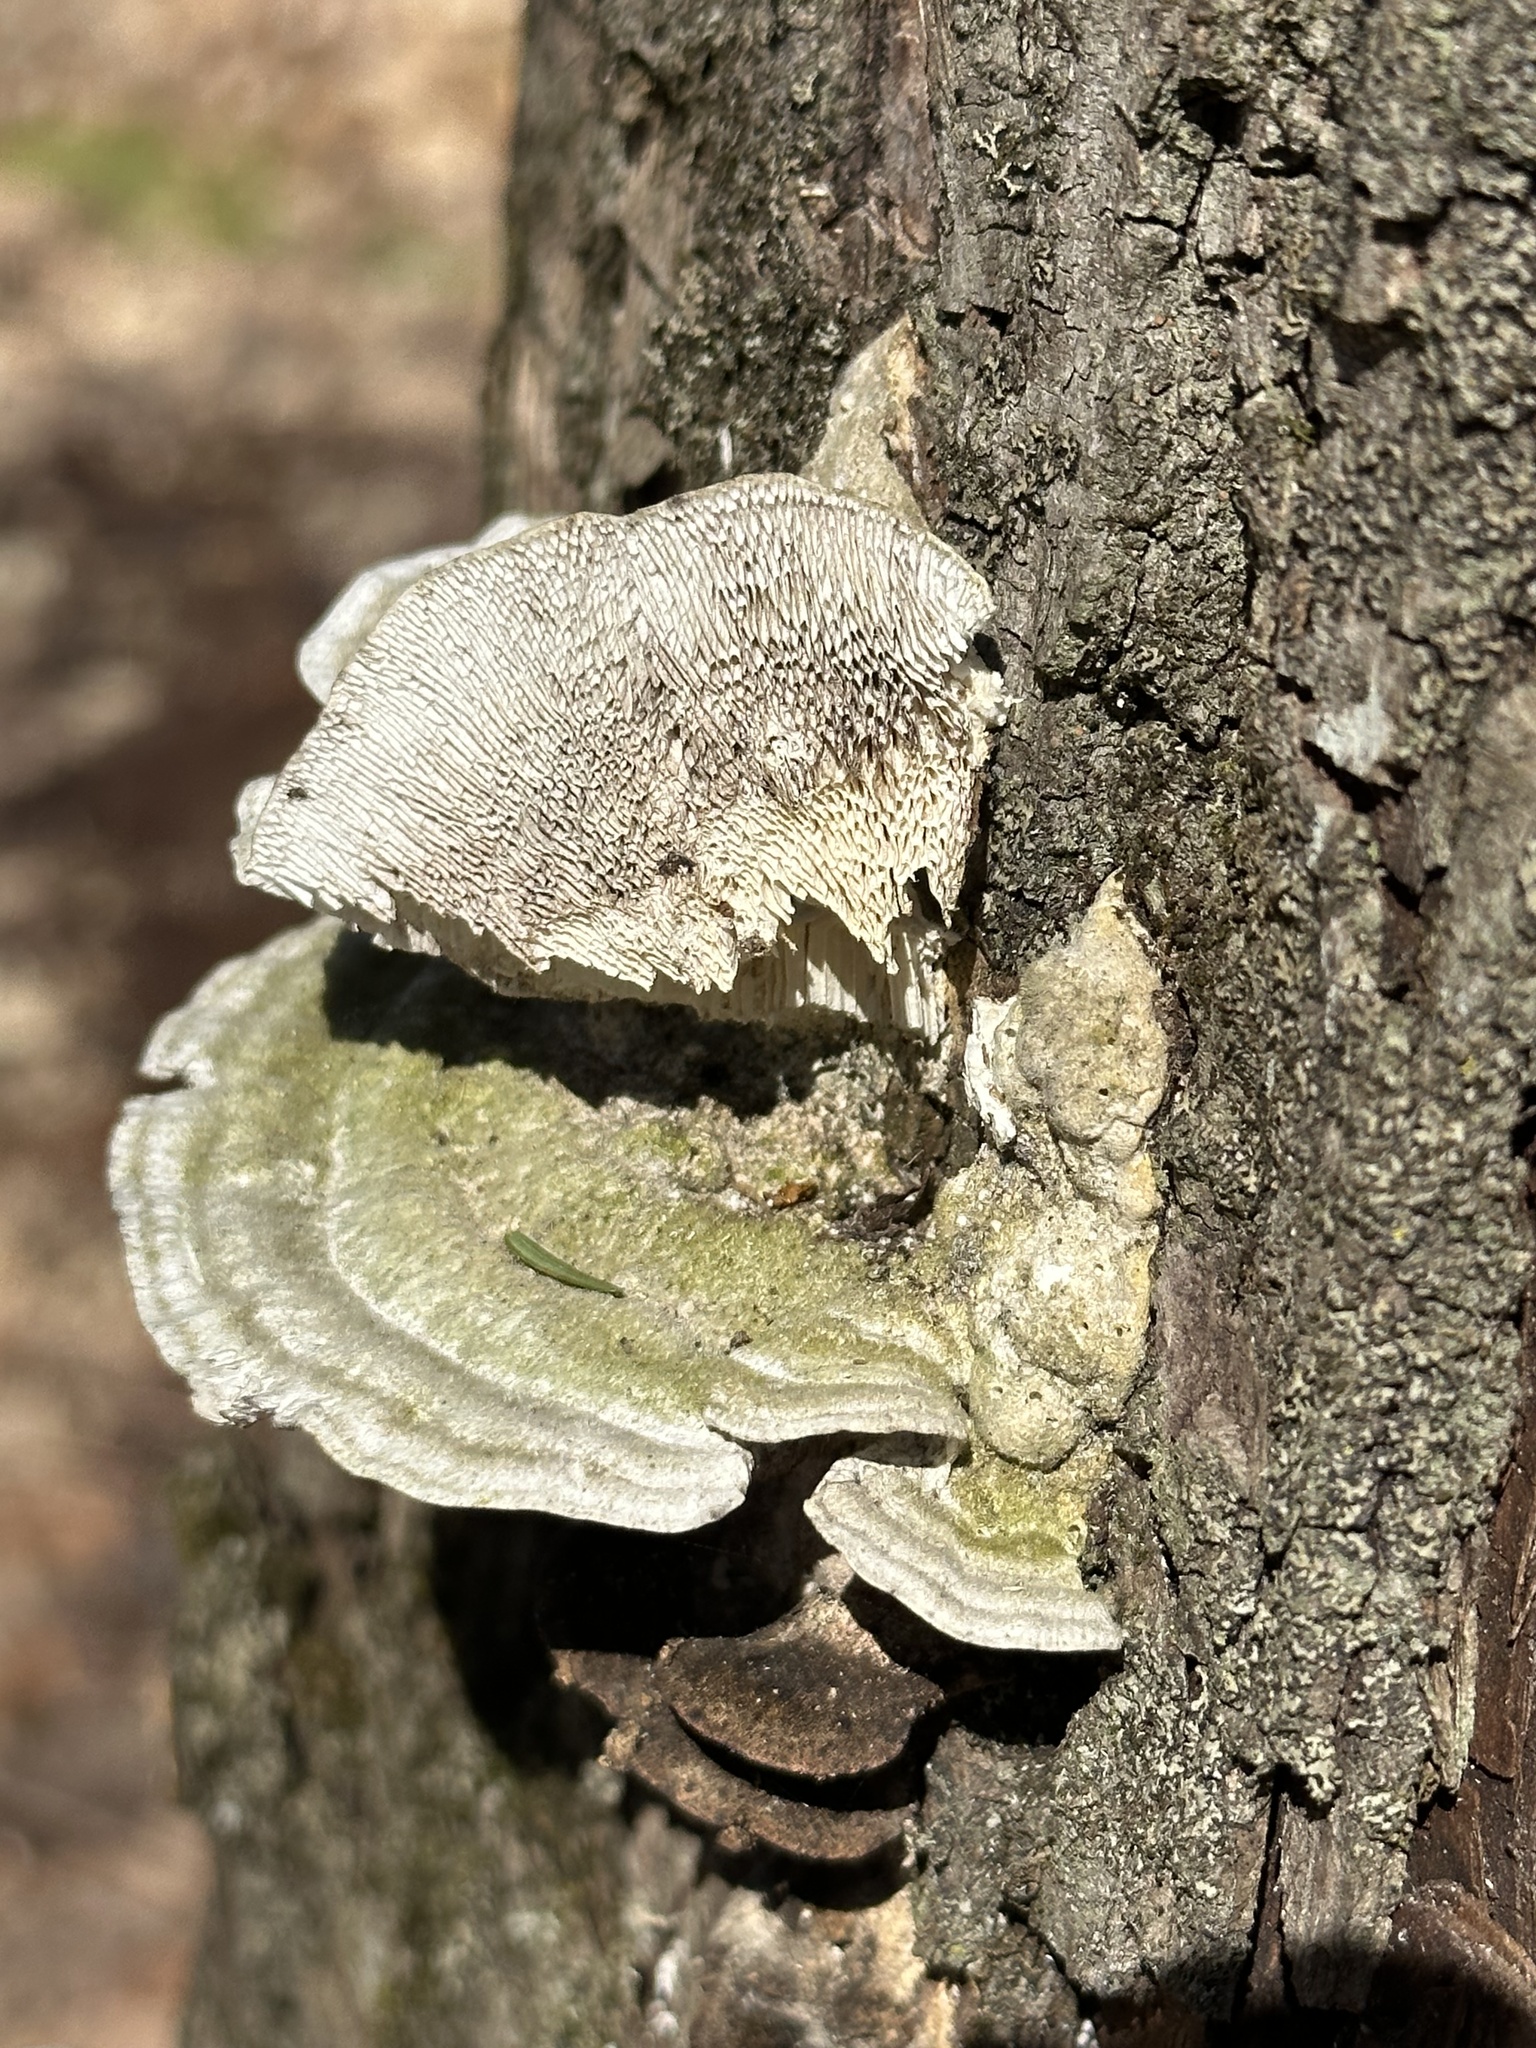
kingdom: Fungi
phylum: Basidiomycota
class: Agaricomycetes
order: Polyporales
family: Polyporaceae
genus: Trametes
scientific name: Trametes gibbosa
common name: Lumpy bracket
